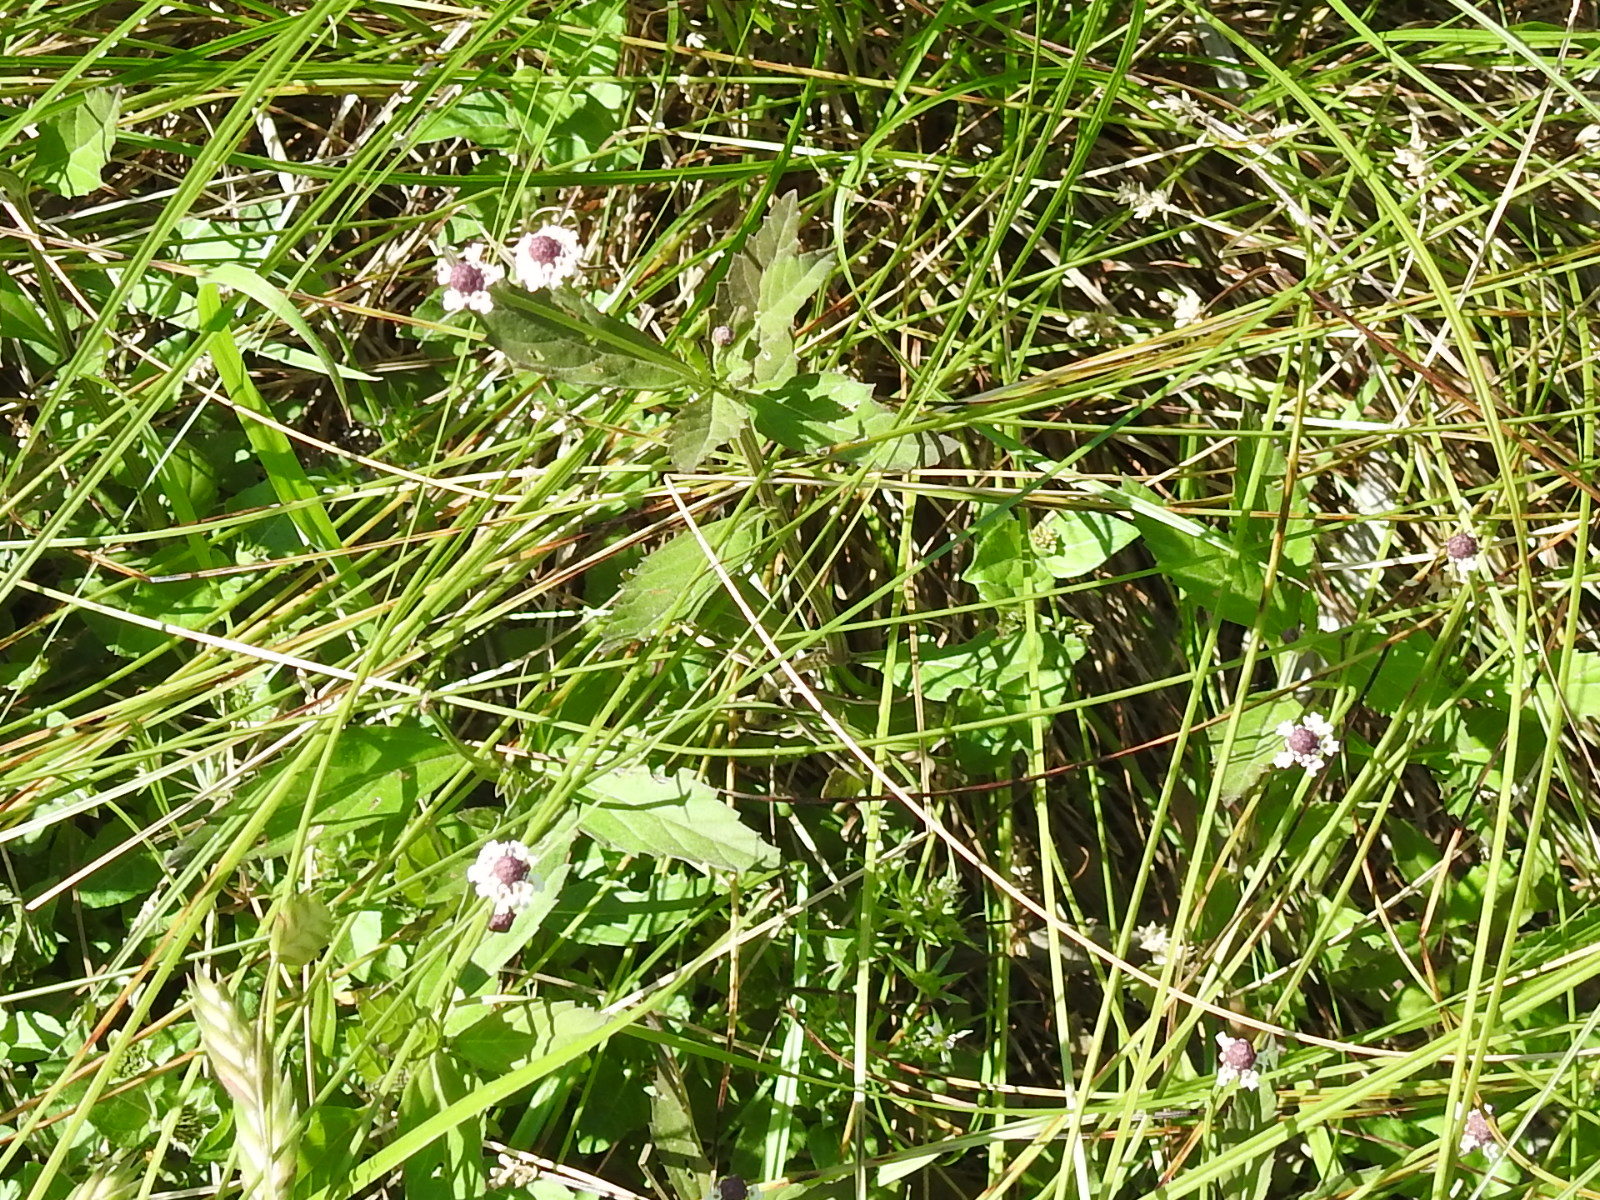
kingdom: Plantae
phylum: Tracheophyta
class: Magnoliopsida
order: Lamiales
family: Verbenaceae
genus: Phyla
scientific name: Phyla lanceolata
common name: Northern fogfruit
